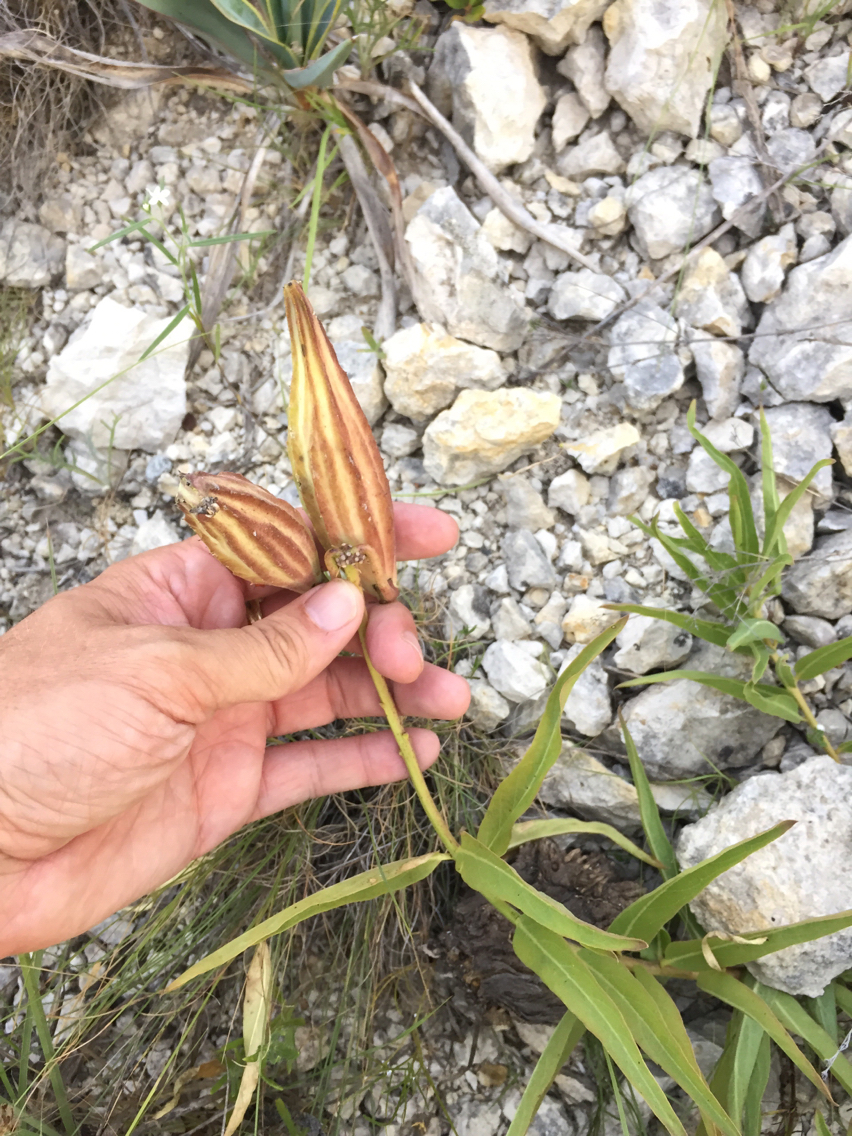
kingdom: Plantae
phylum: Tracheophyta
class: Magnoliopsida
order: Gentianales
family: Apocynaceae
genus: Asclepias
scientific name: Asclepias asperula
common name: Antelope horns
